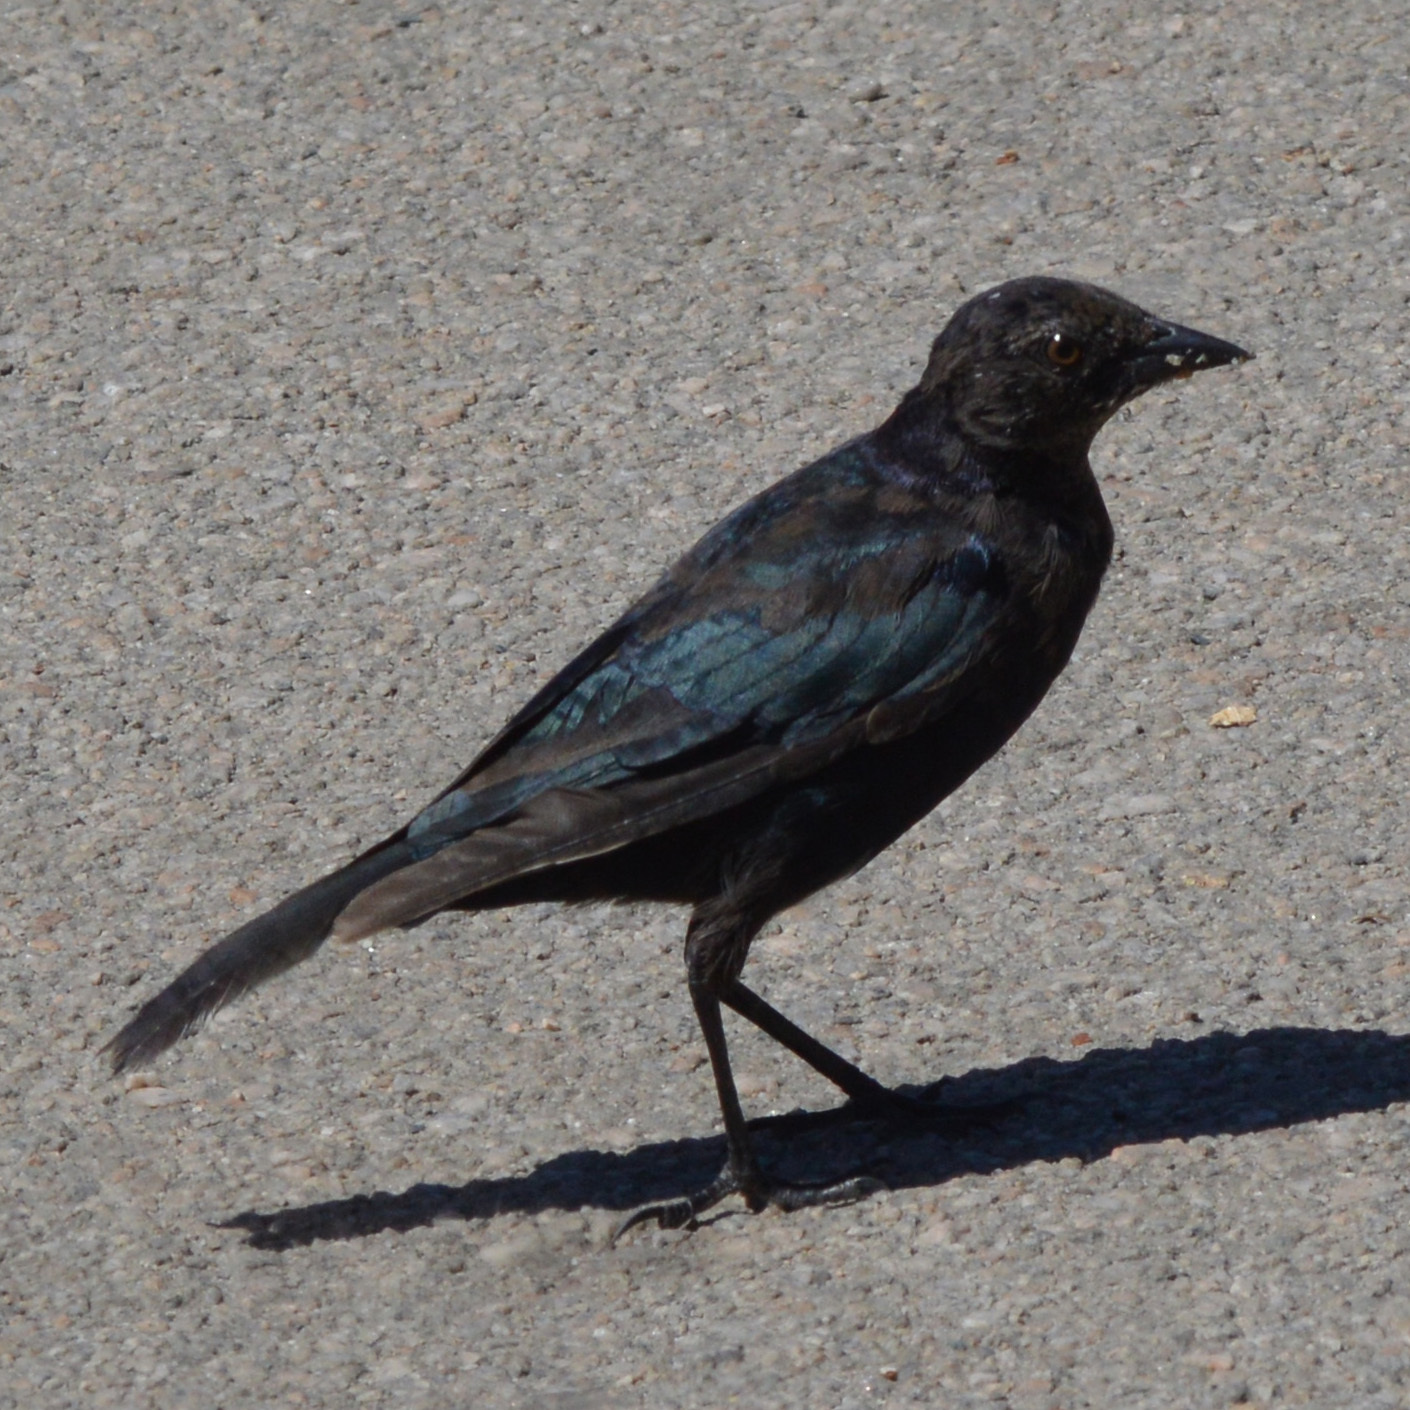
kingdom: Animalia
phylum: Chordata
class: Aves
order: Passeriformes
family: Icteridae
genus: Euphagus
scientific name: Euphagus cyanocephalus
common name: Brewer's blackbird
